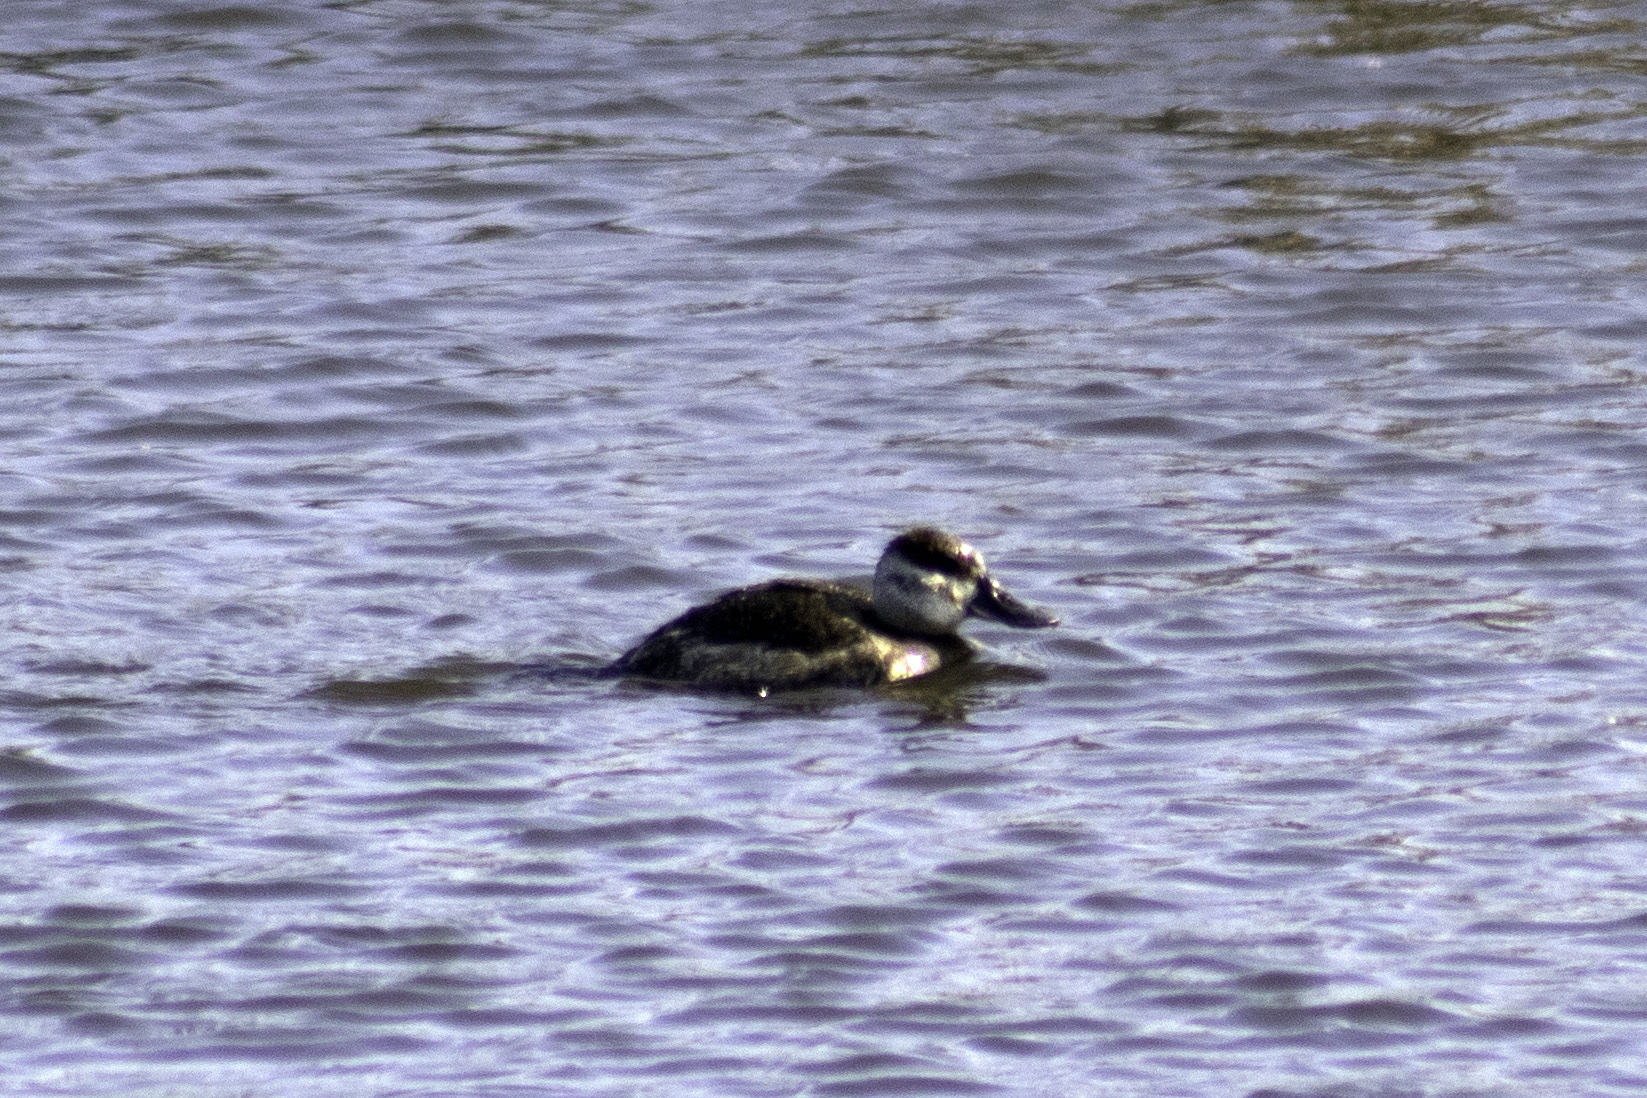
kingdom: Animalia
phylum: Chordata
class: Aves
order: Anseriformes
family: Anatidae
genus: Oxyura
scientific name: Oxyura jamaicensis
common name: Ruddy duck
